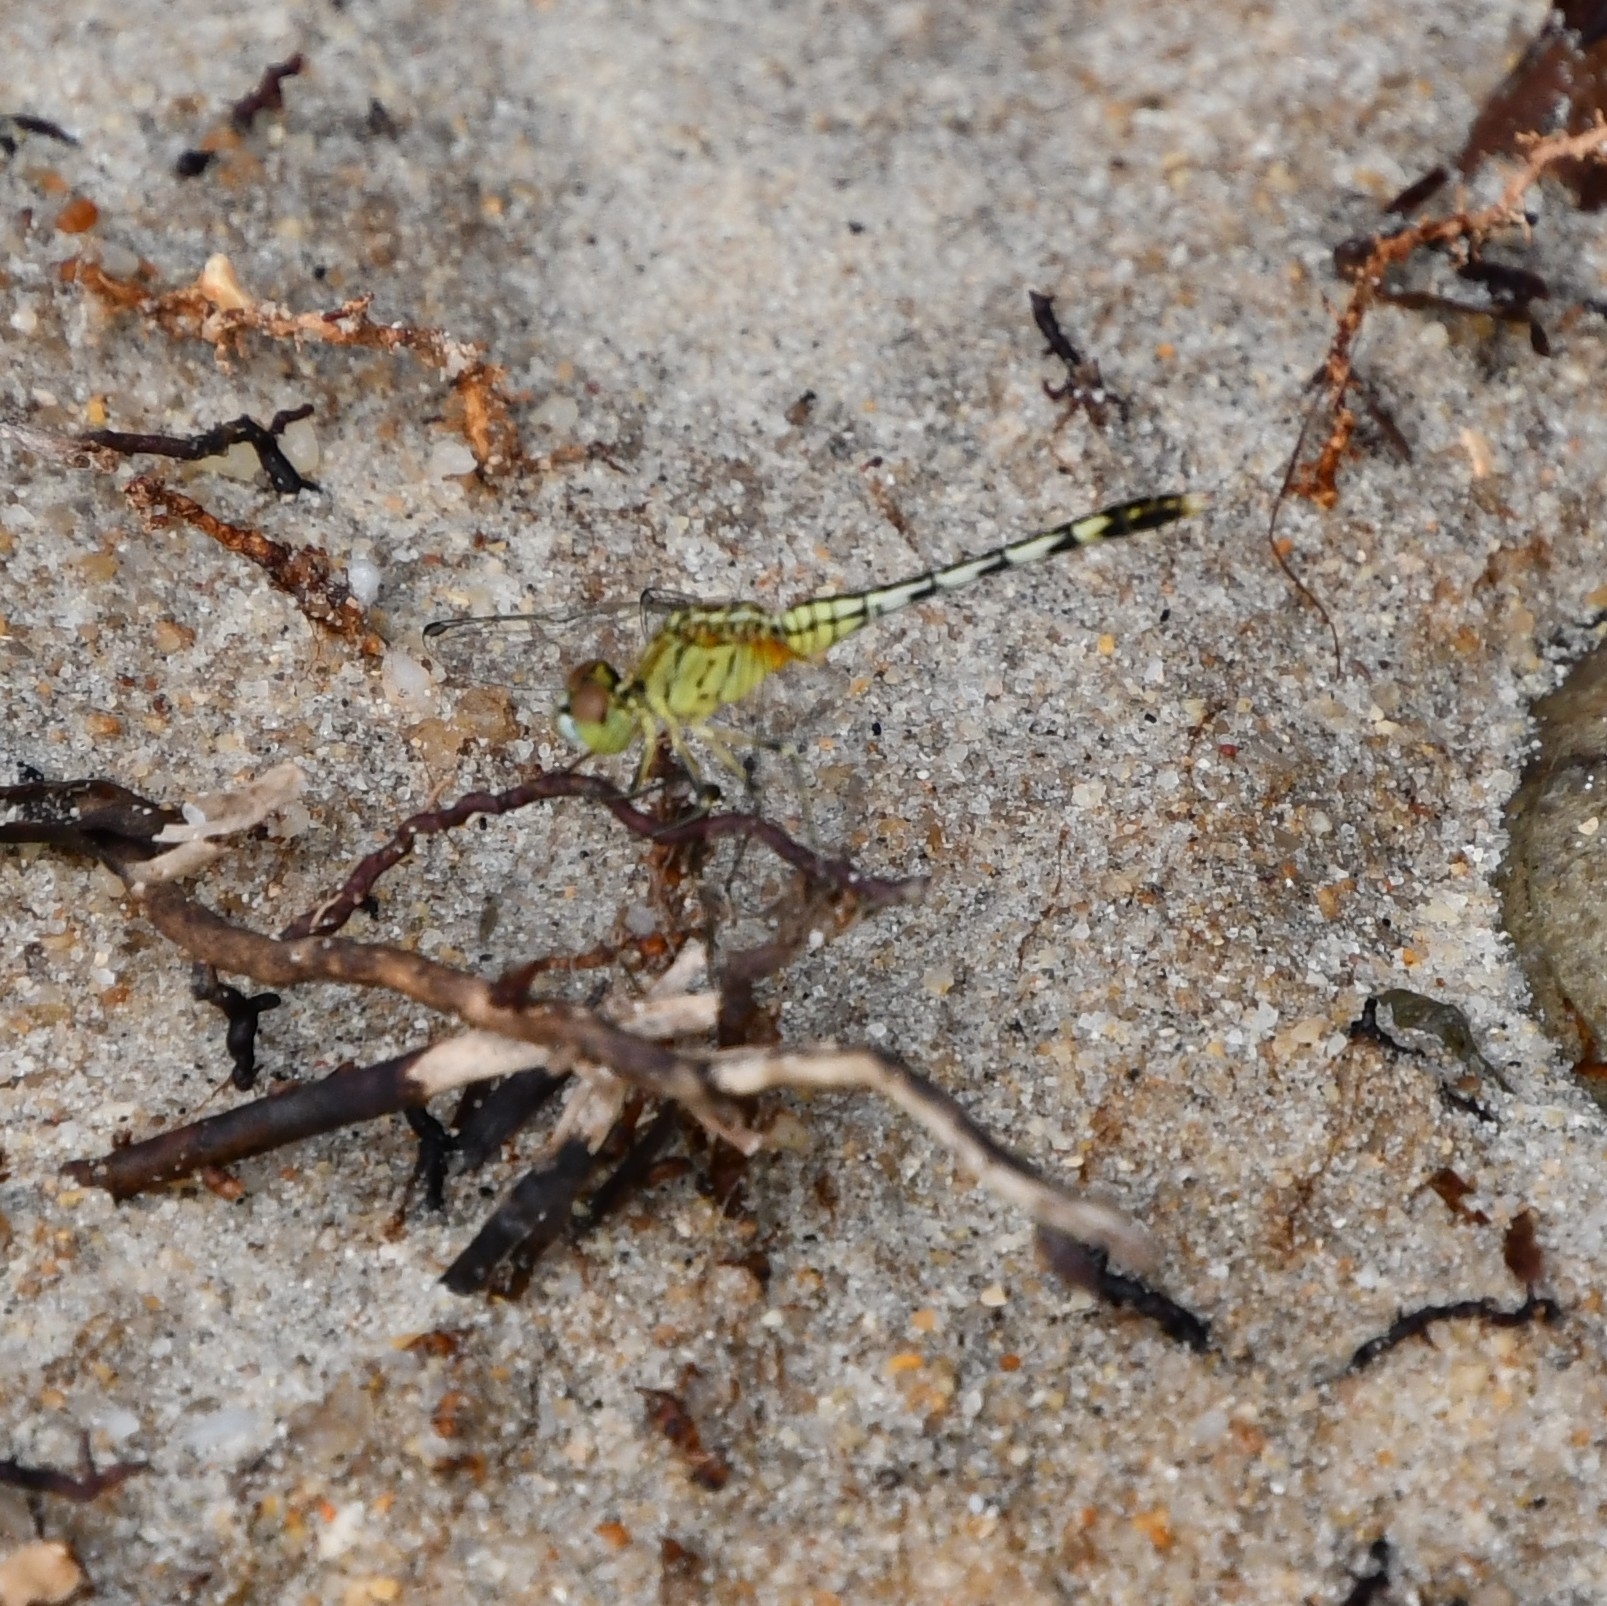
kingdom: Animalia
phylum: Arthropoda
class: Insecta
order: Odonata
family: Libellulidae
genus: Diplacodes
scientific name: Diplacodes trivialis
